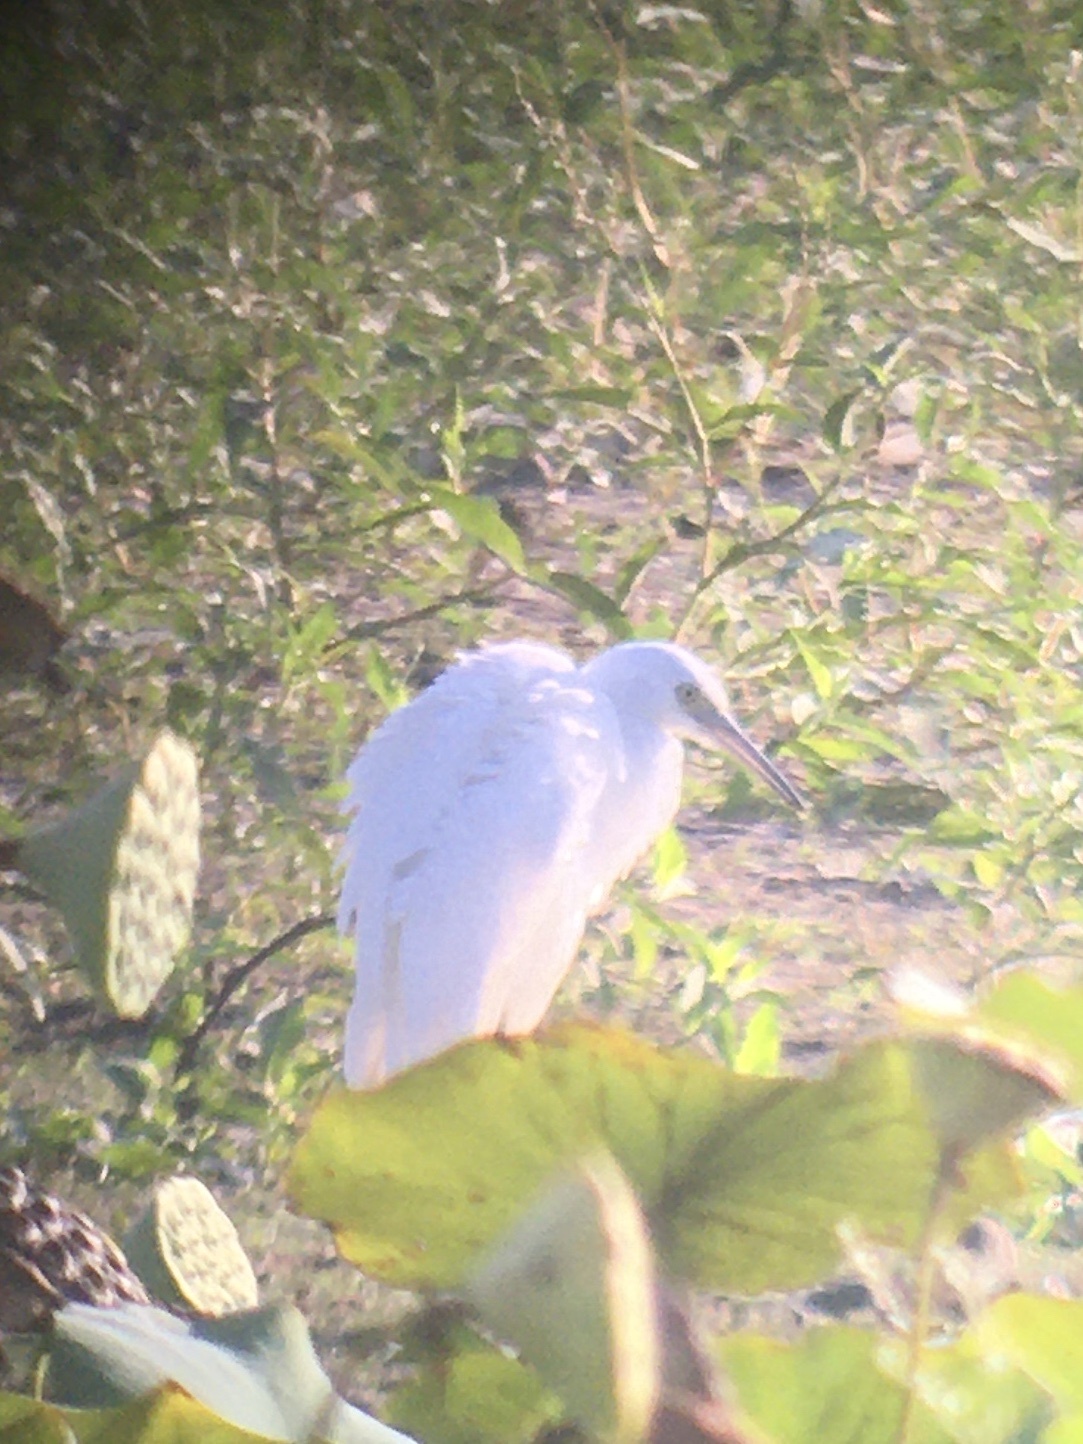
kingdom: Animalia
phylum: Chordata
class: Aves
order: Pelecaniformes
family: Ardeidae
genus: Egretta
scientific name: Egretta caerulea
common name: Little blue heron
